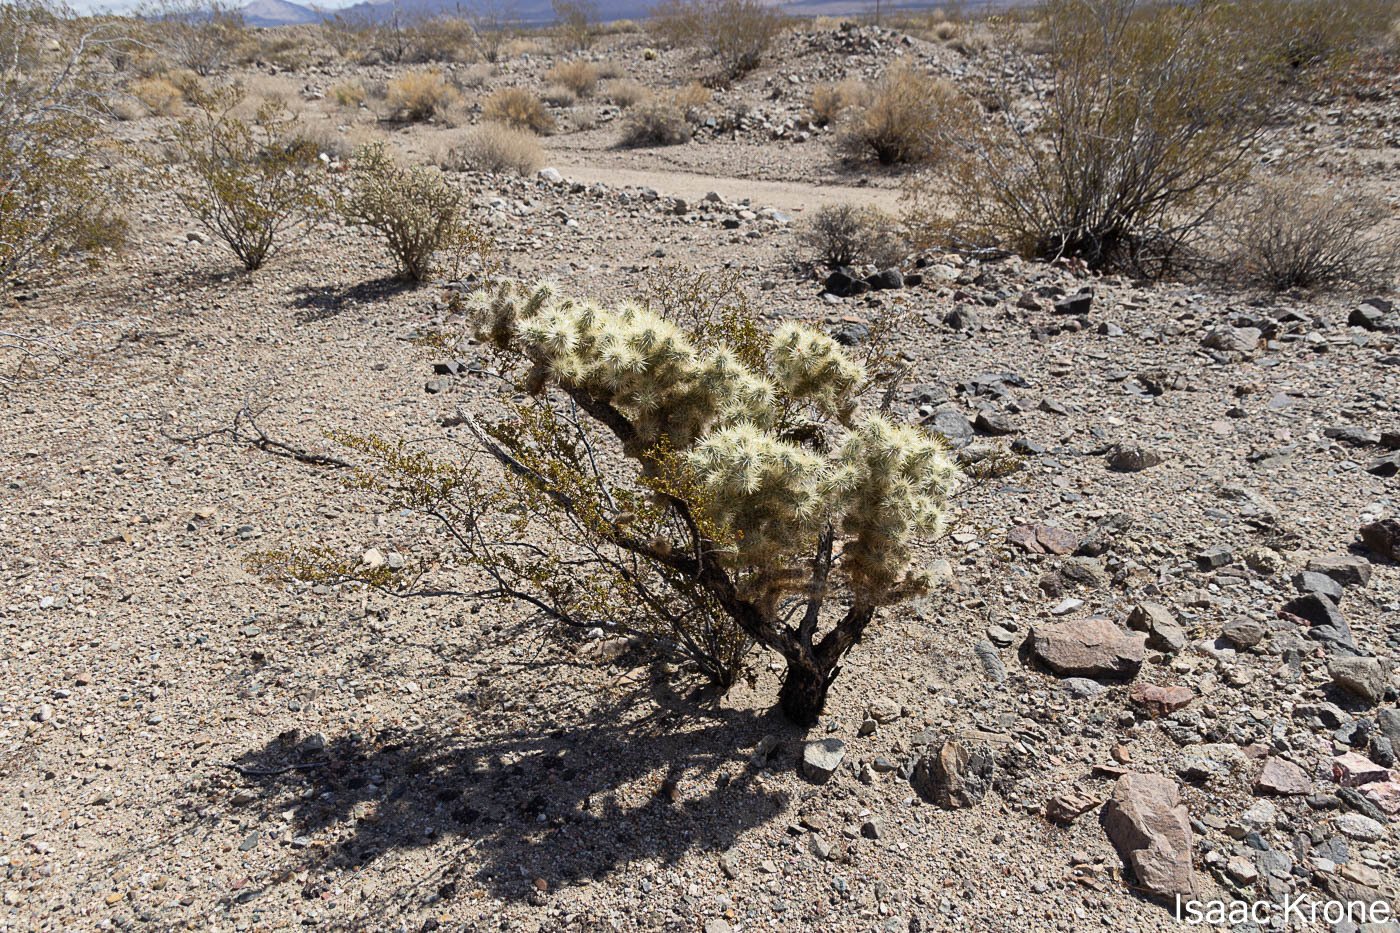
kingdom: Plantae
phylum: Tracheophyta
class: Magnoliopsida
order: Caryophyllales
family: Cactaceae
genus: Cylindropuntia
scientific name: Cylindropuntia echinocarpa
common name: Ground cholla
